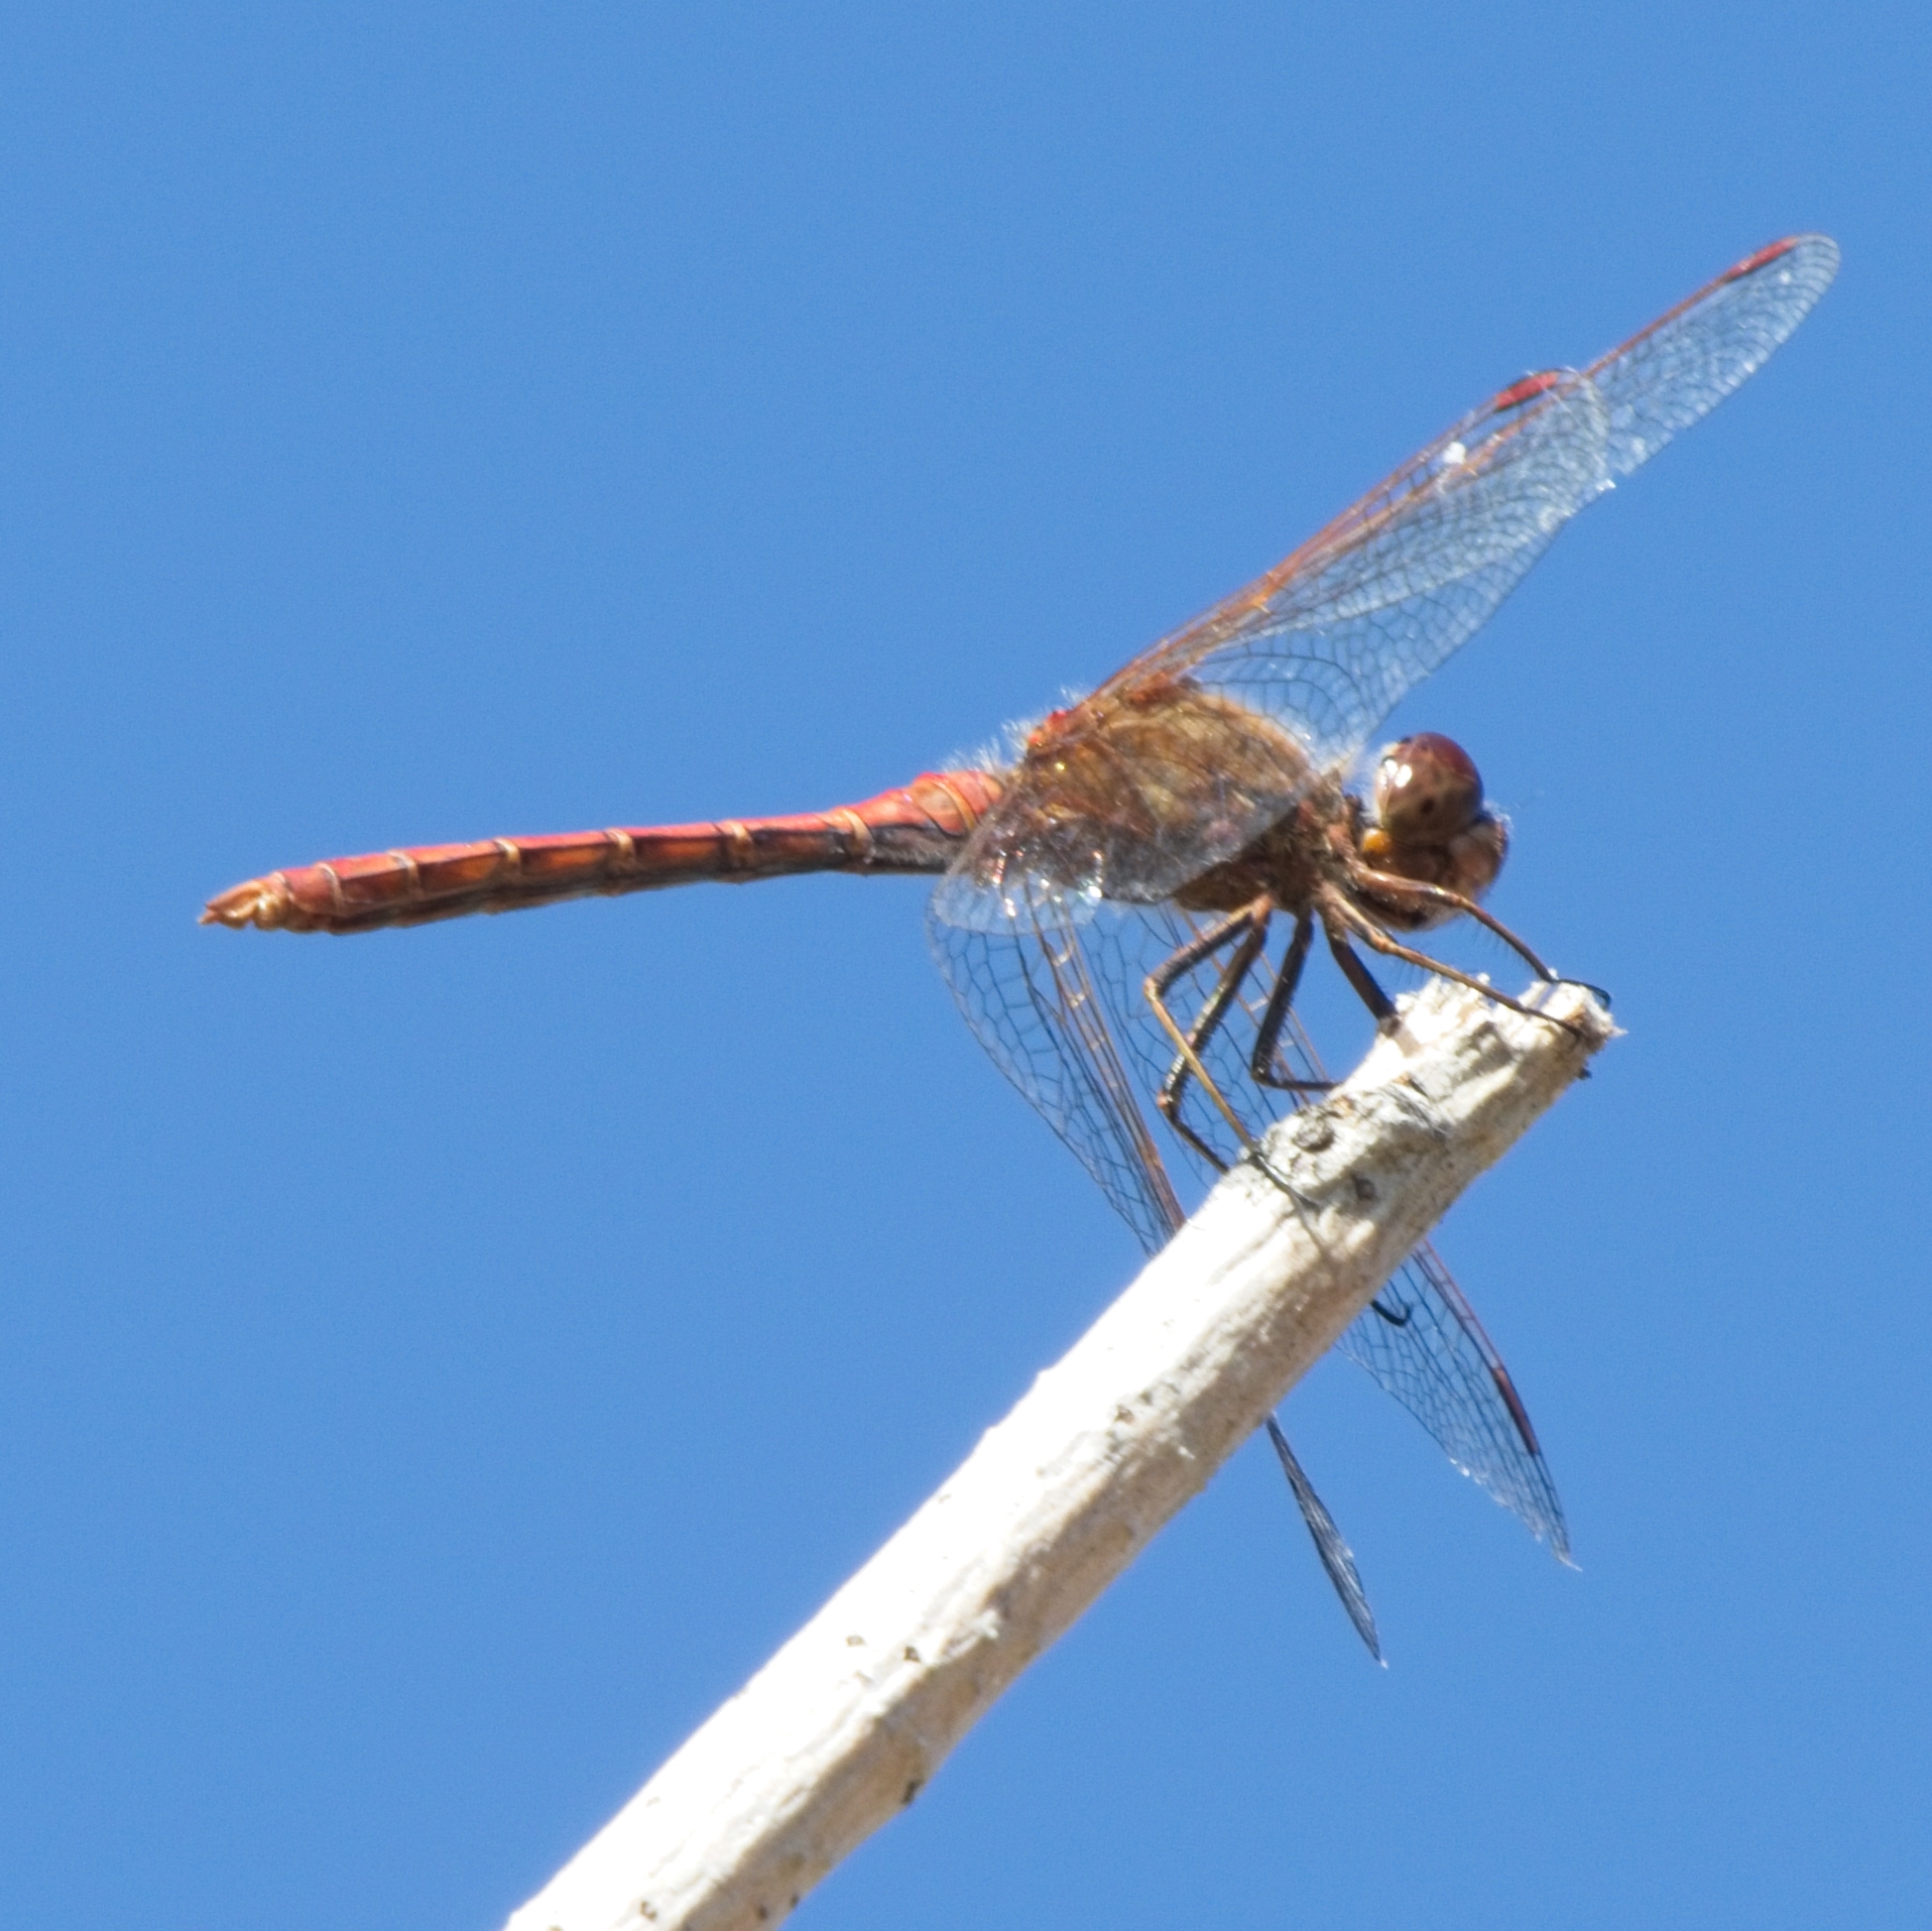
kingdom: Animalia
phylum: Arthropoda
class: Insecta
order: Odonata
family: Libellulidae
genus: Sympetrum
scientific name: Sympetrum vulgatum
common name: Vagrant darter
